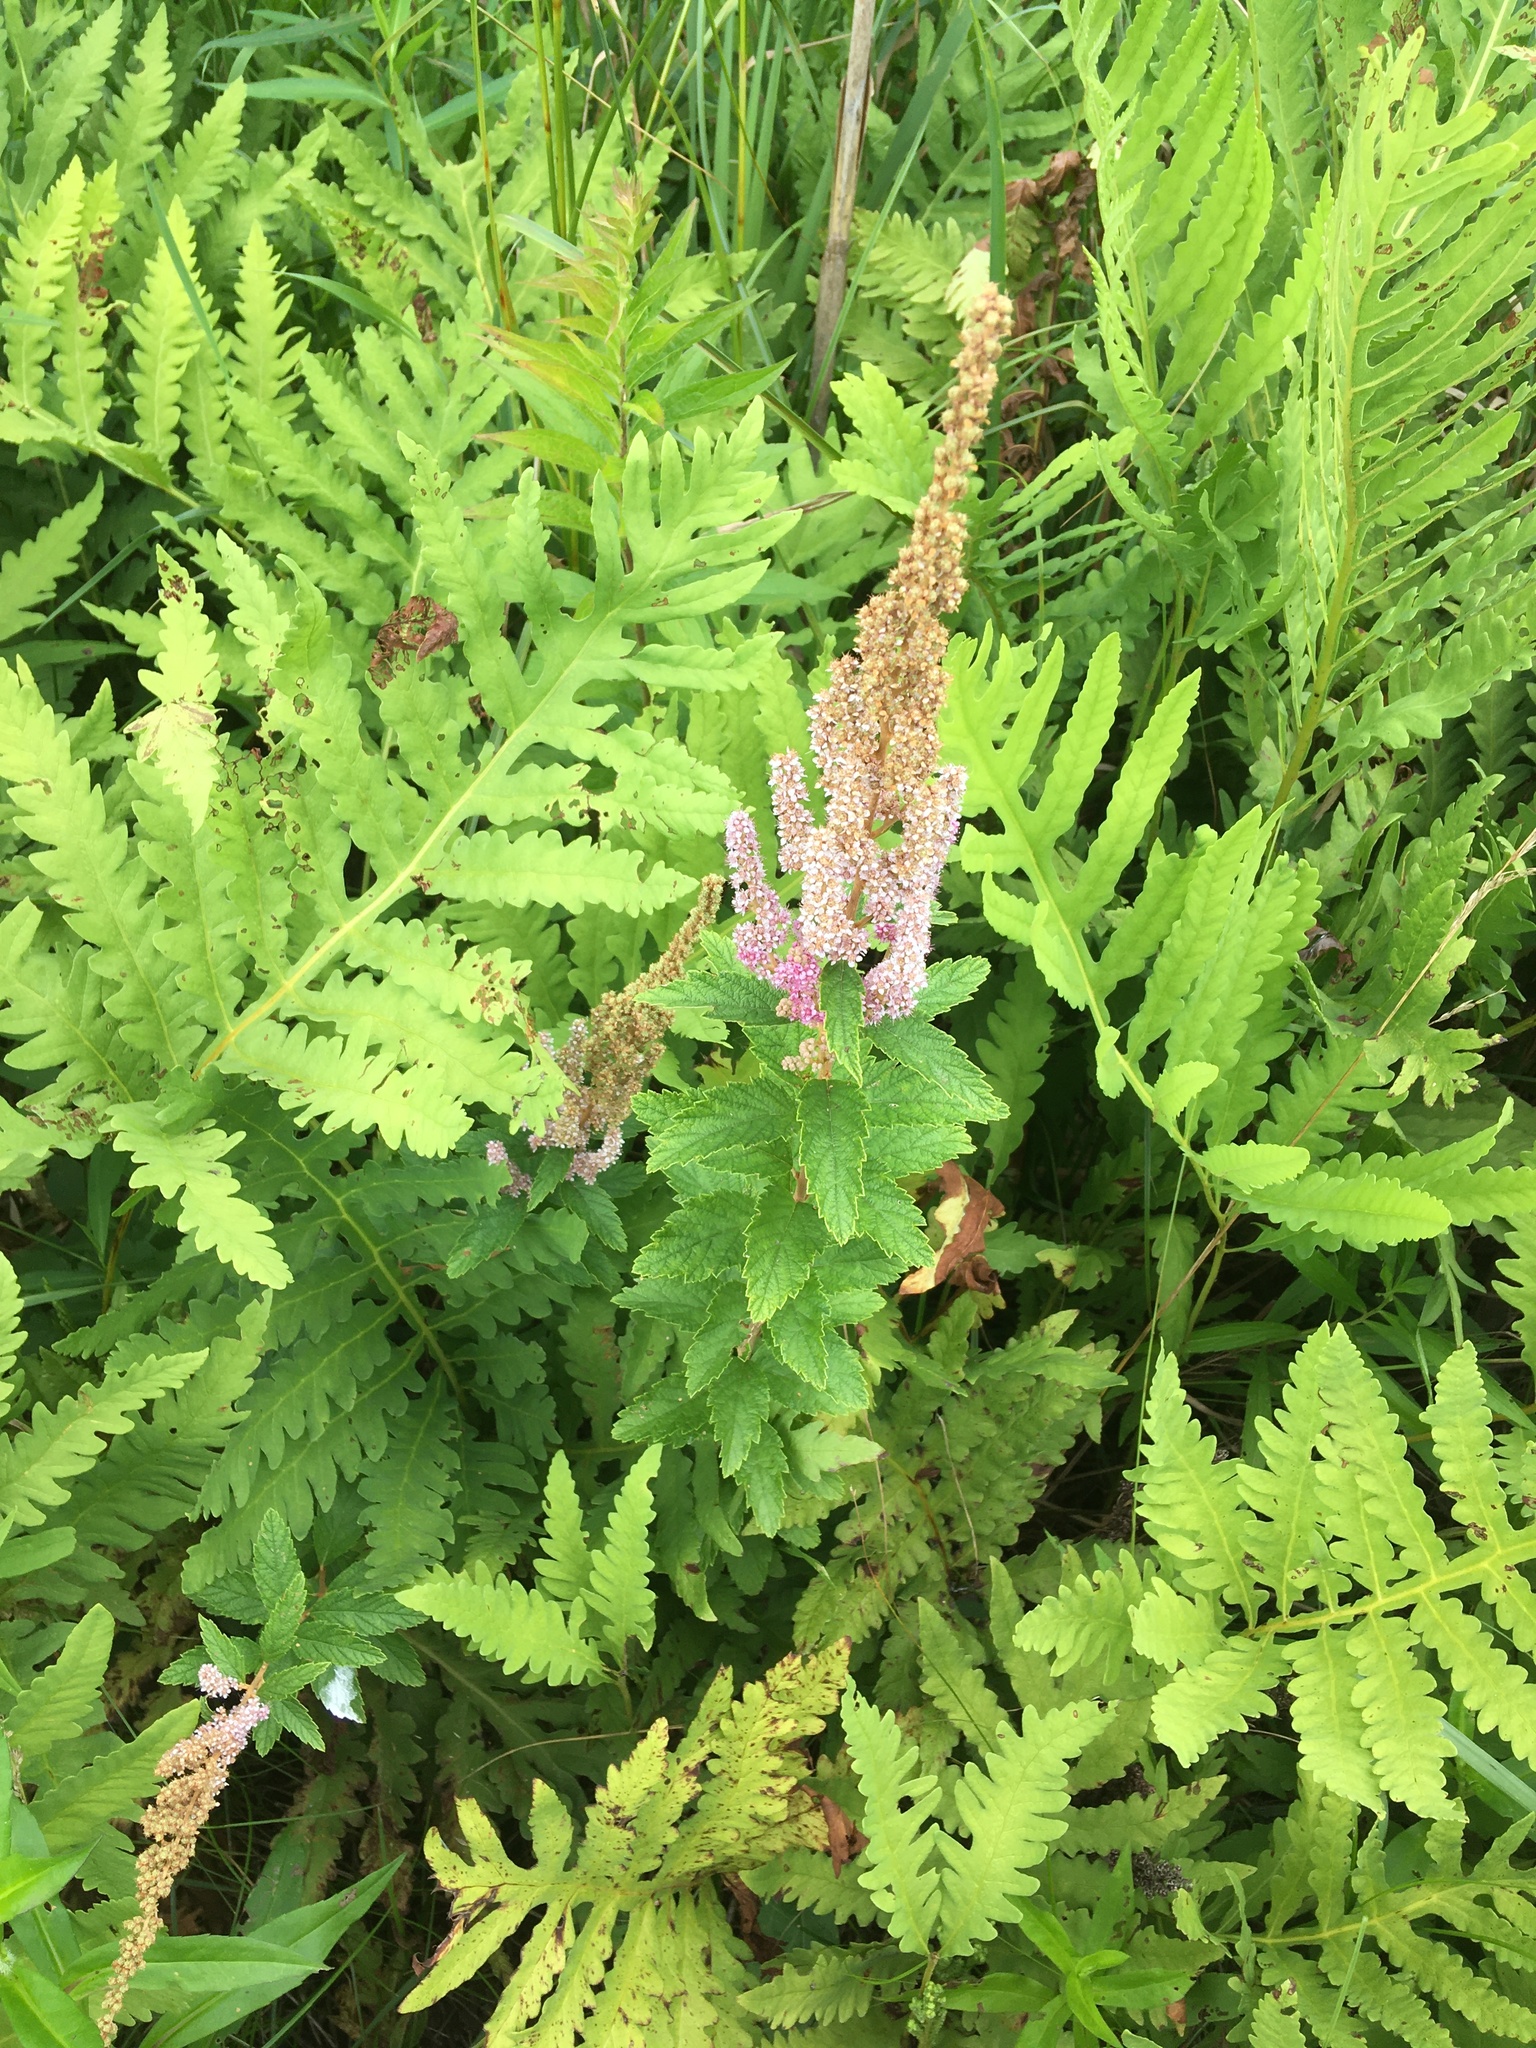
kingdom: Plantae
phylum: Tracheophyta
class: Magnoliopsida
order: Rosales
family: Rosaceae
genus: Spiraea
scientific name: Spiraea tomentosa
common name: Hardhack
